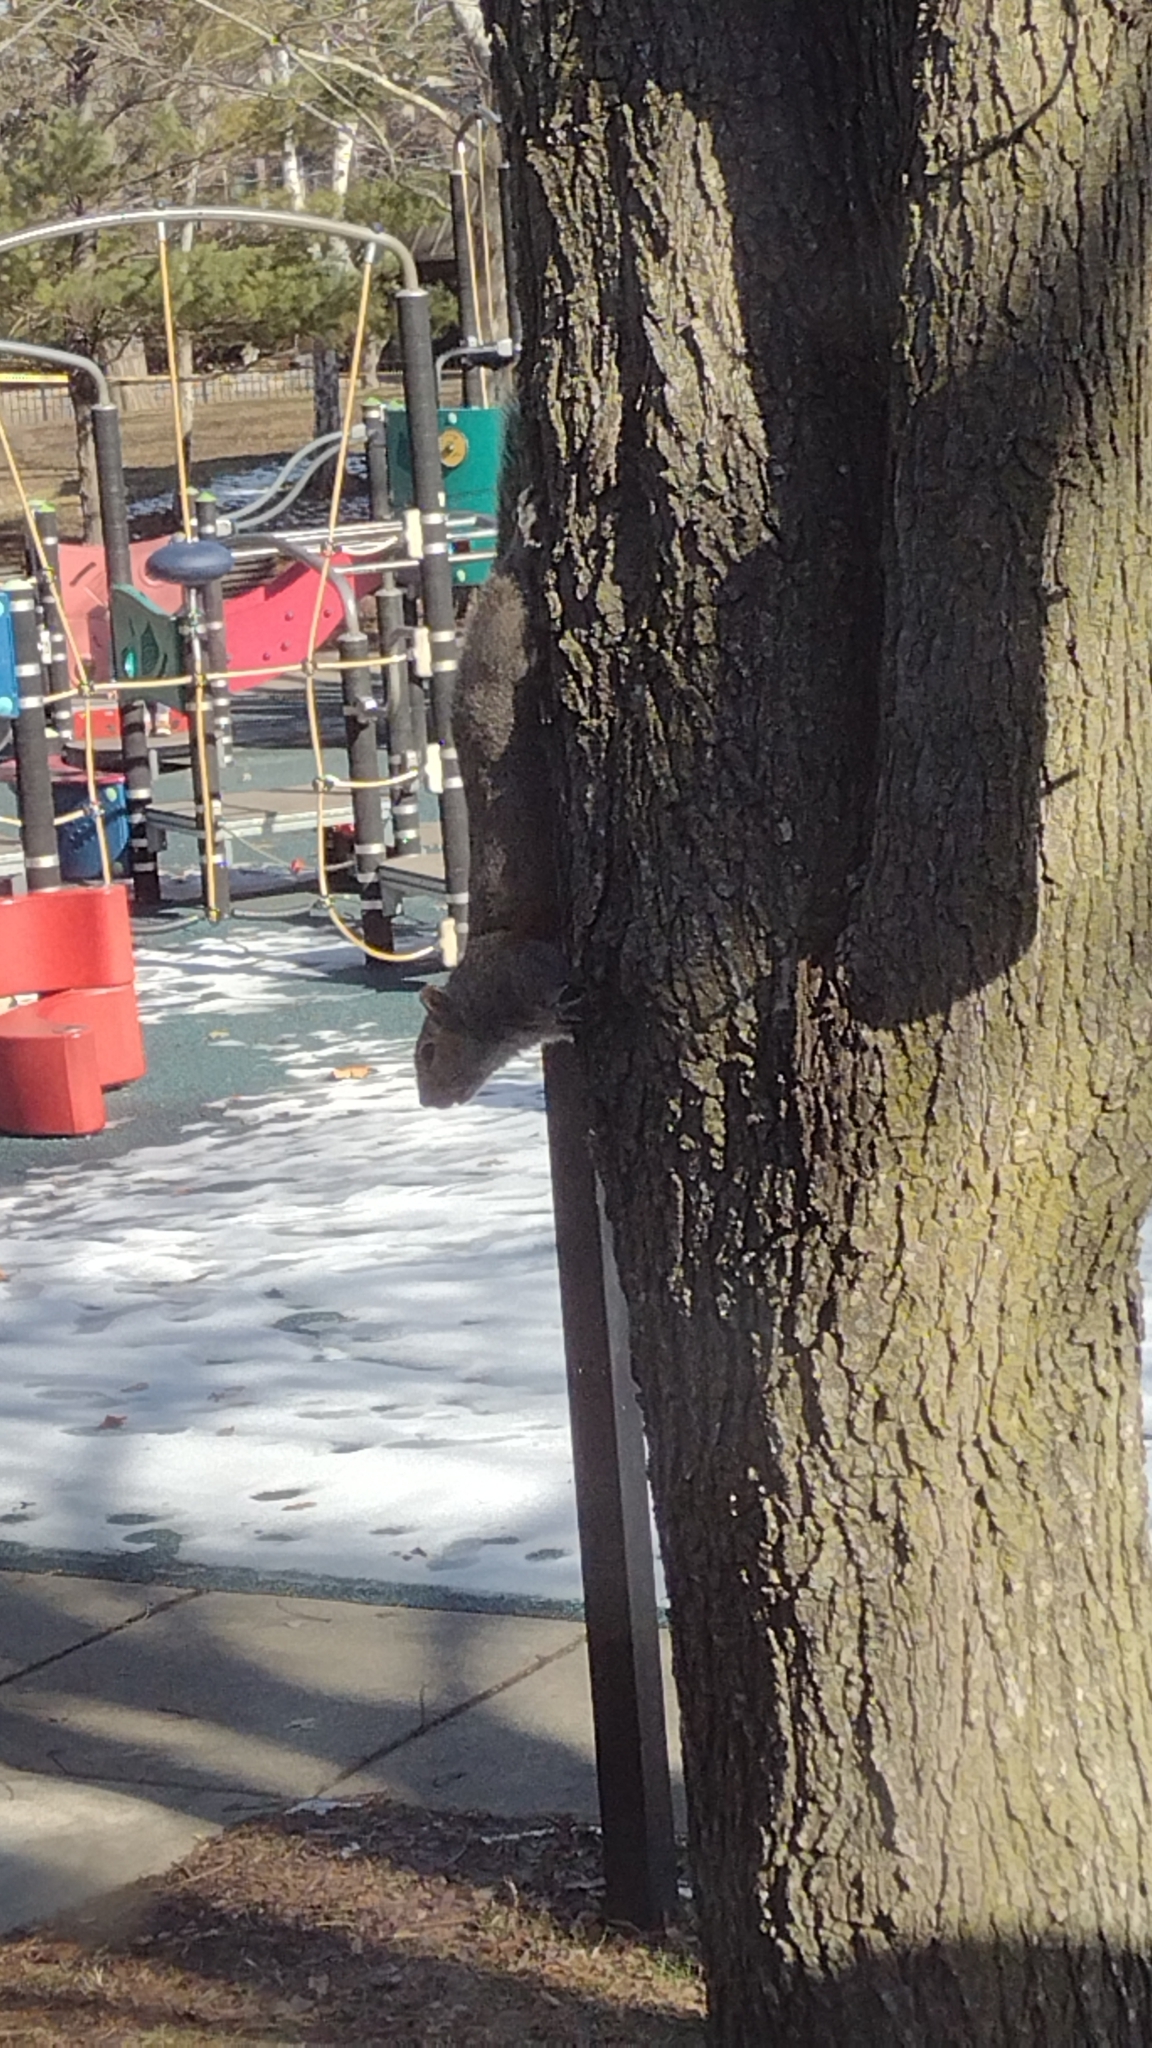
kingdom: Animalia
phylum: Chordata
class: Mammalia
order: Rodentia
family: Sciuridae
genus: Sciurus
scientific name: Sciurus carolinensis
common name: Eastern gray squirrel
